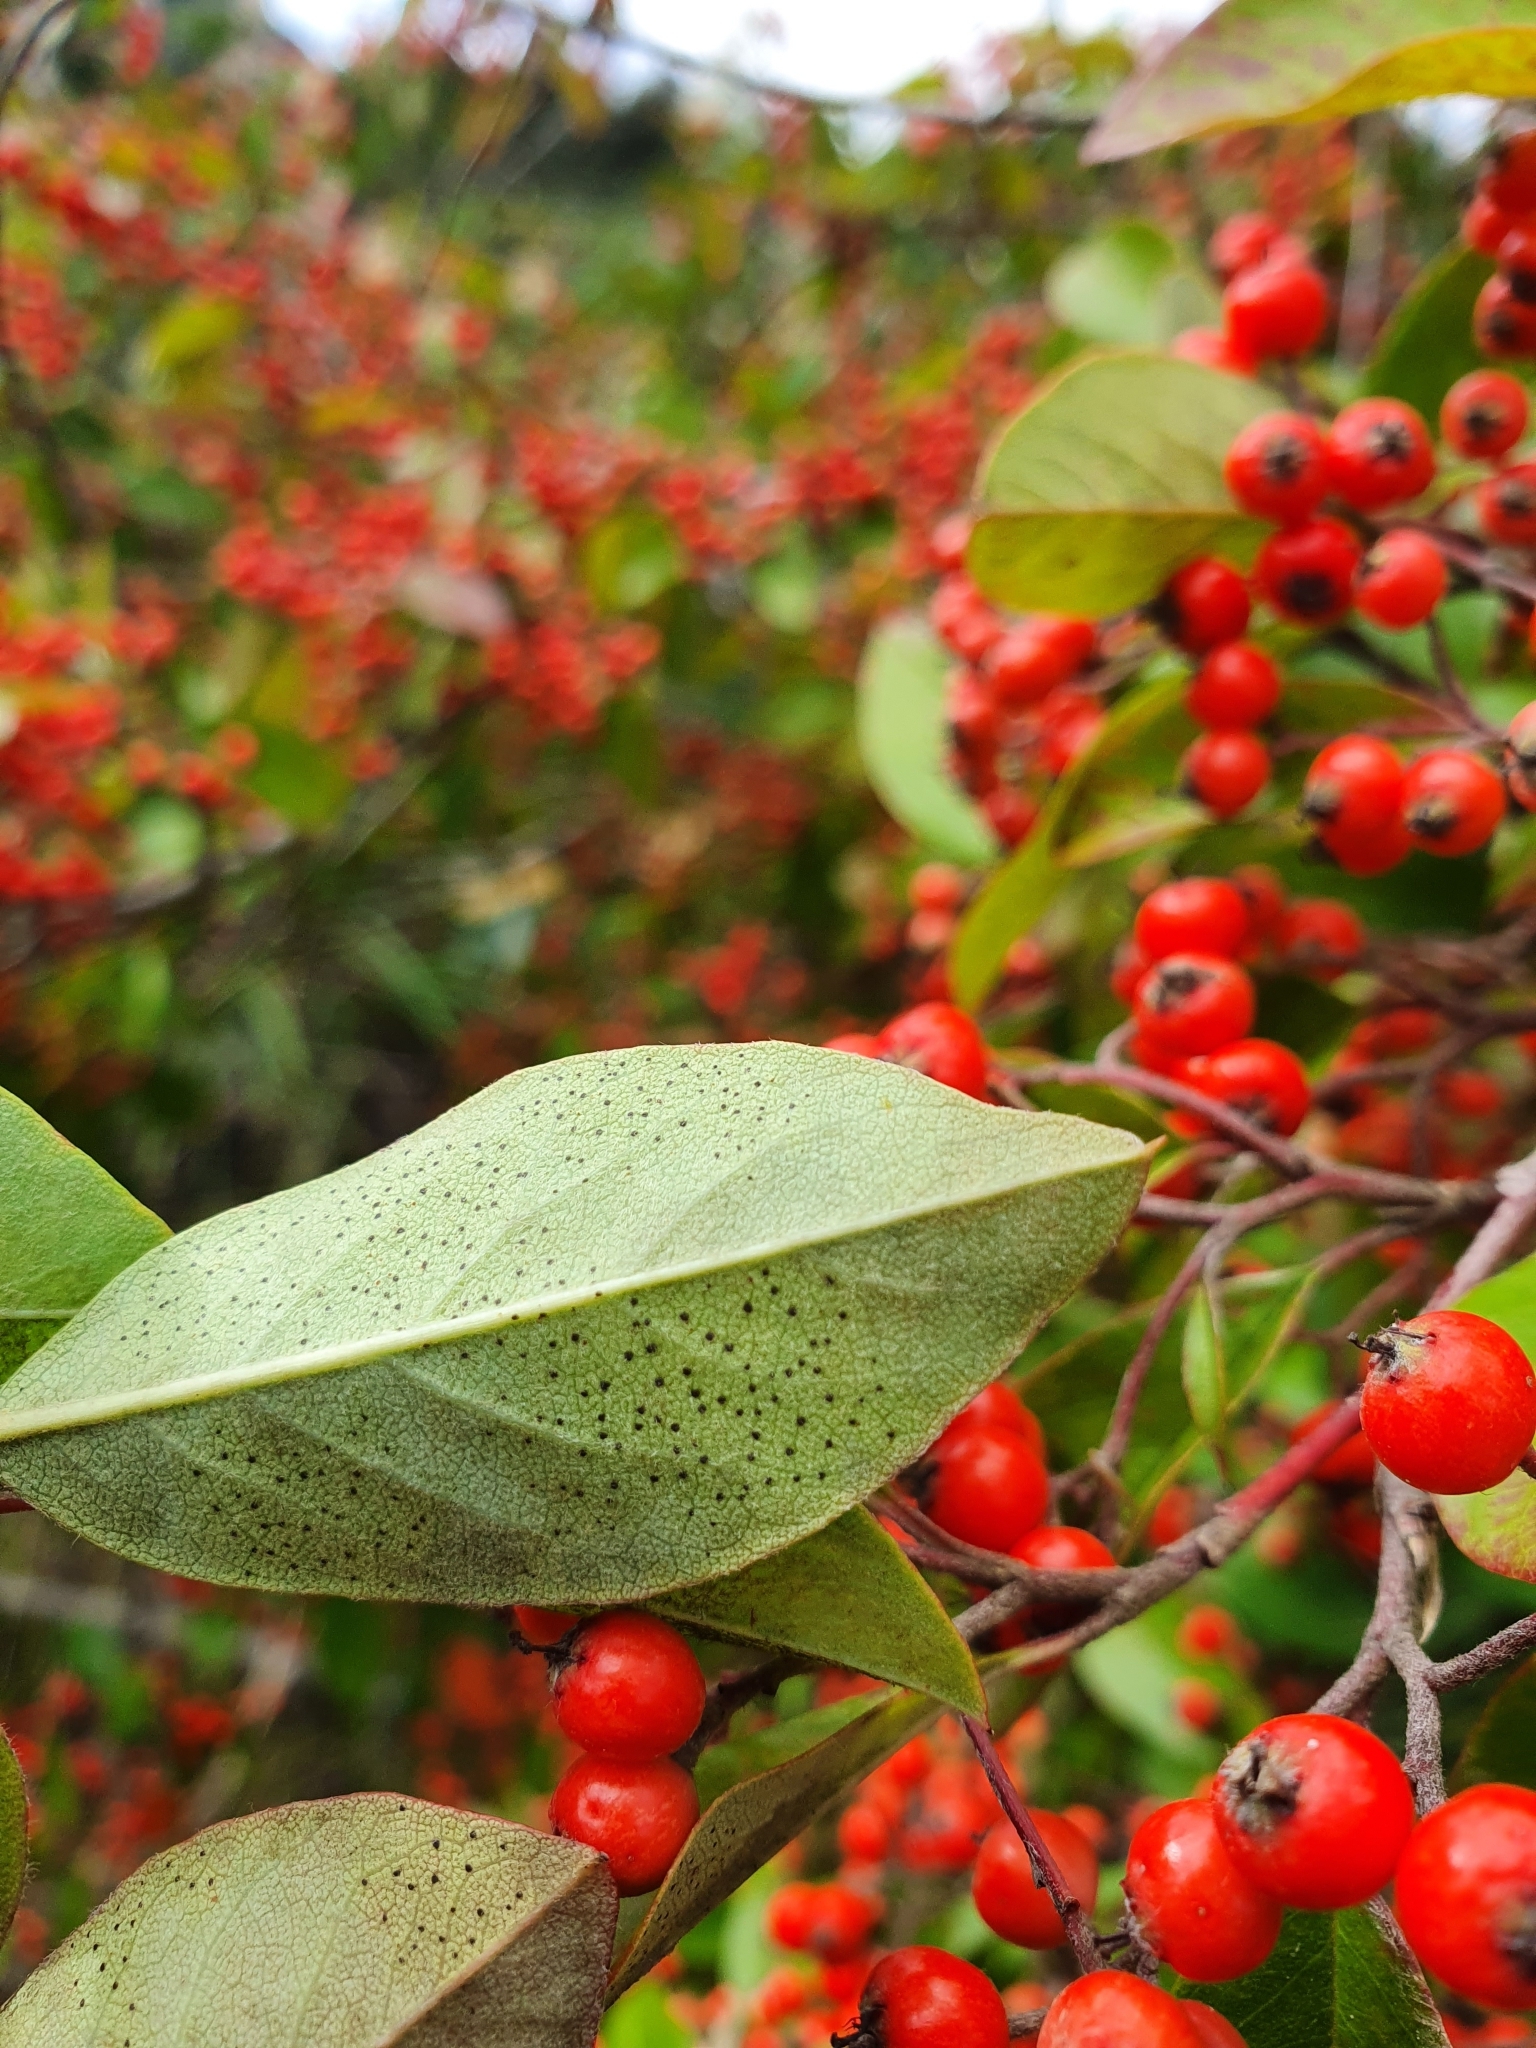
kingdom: Plantae
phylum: Tracheophyta
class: Magnoliopsida
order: Rosales
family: Rosaceae
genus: Cotoneaster
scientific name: Cotoneaster glaucophyllus
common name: Glaucous cotoneaster
